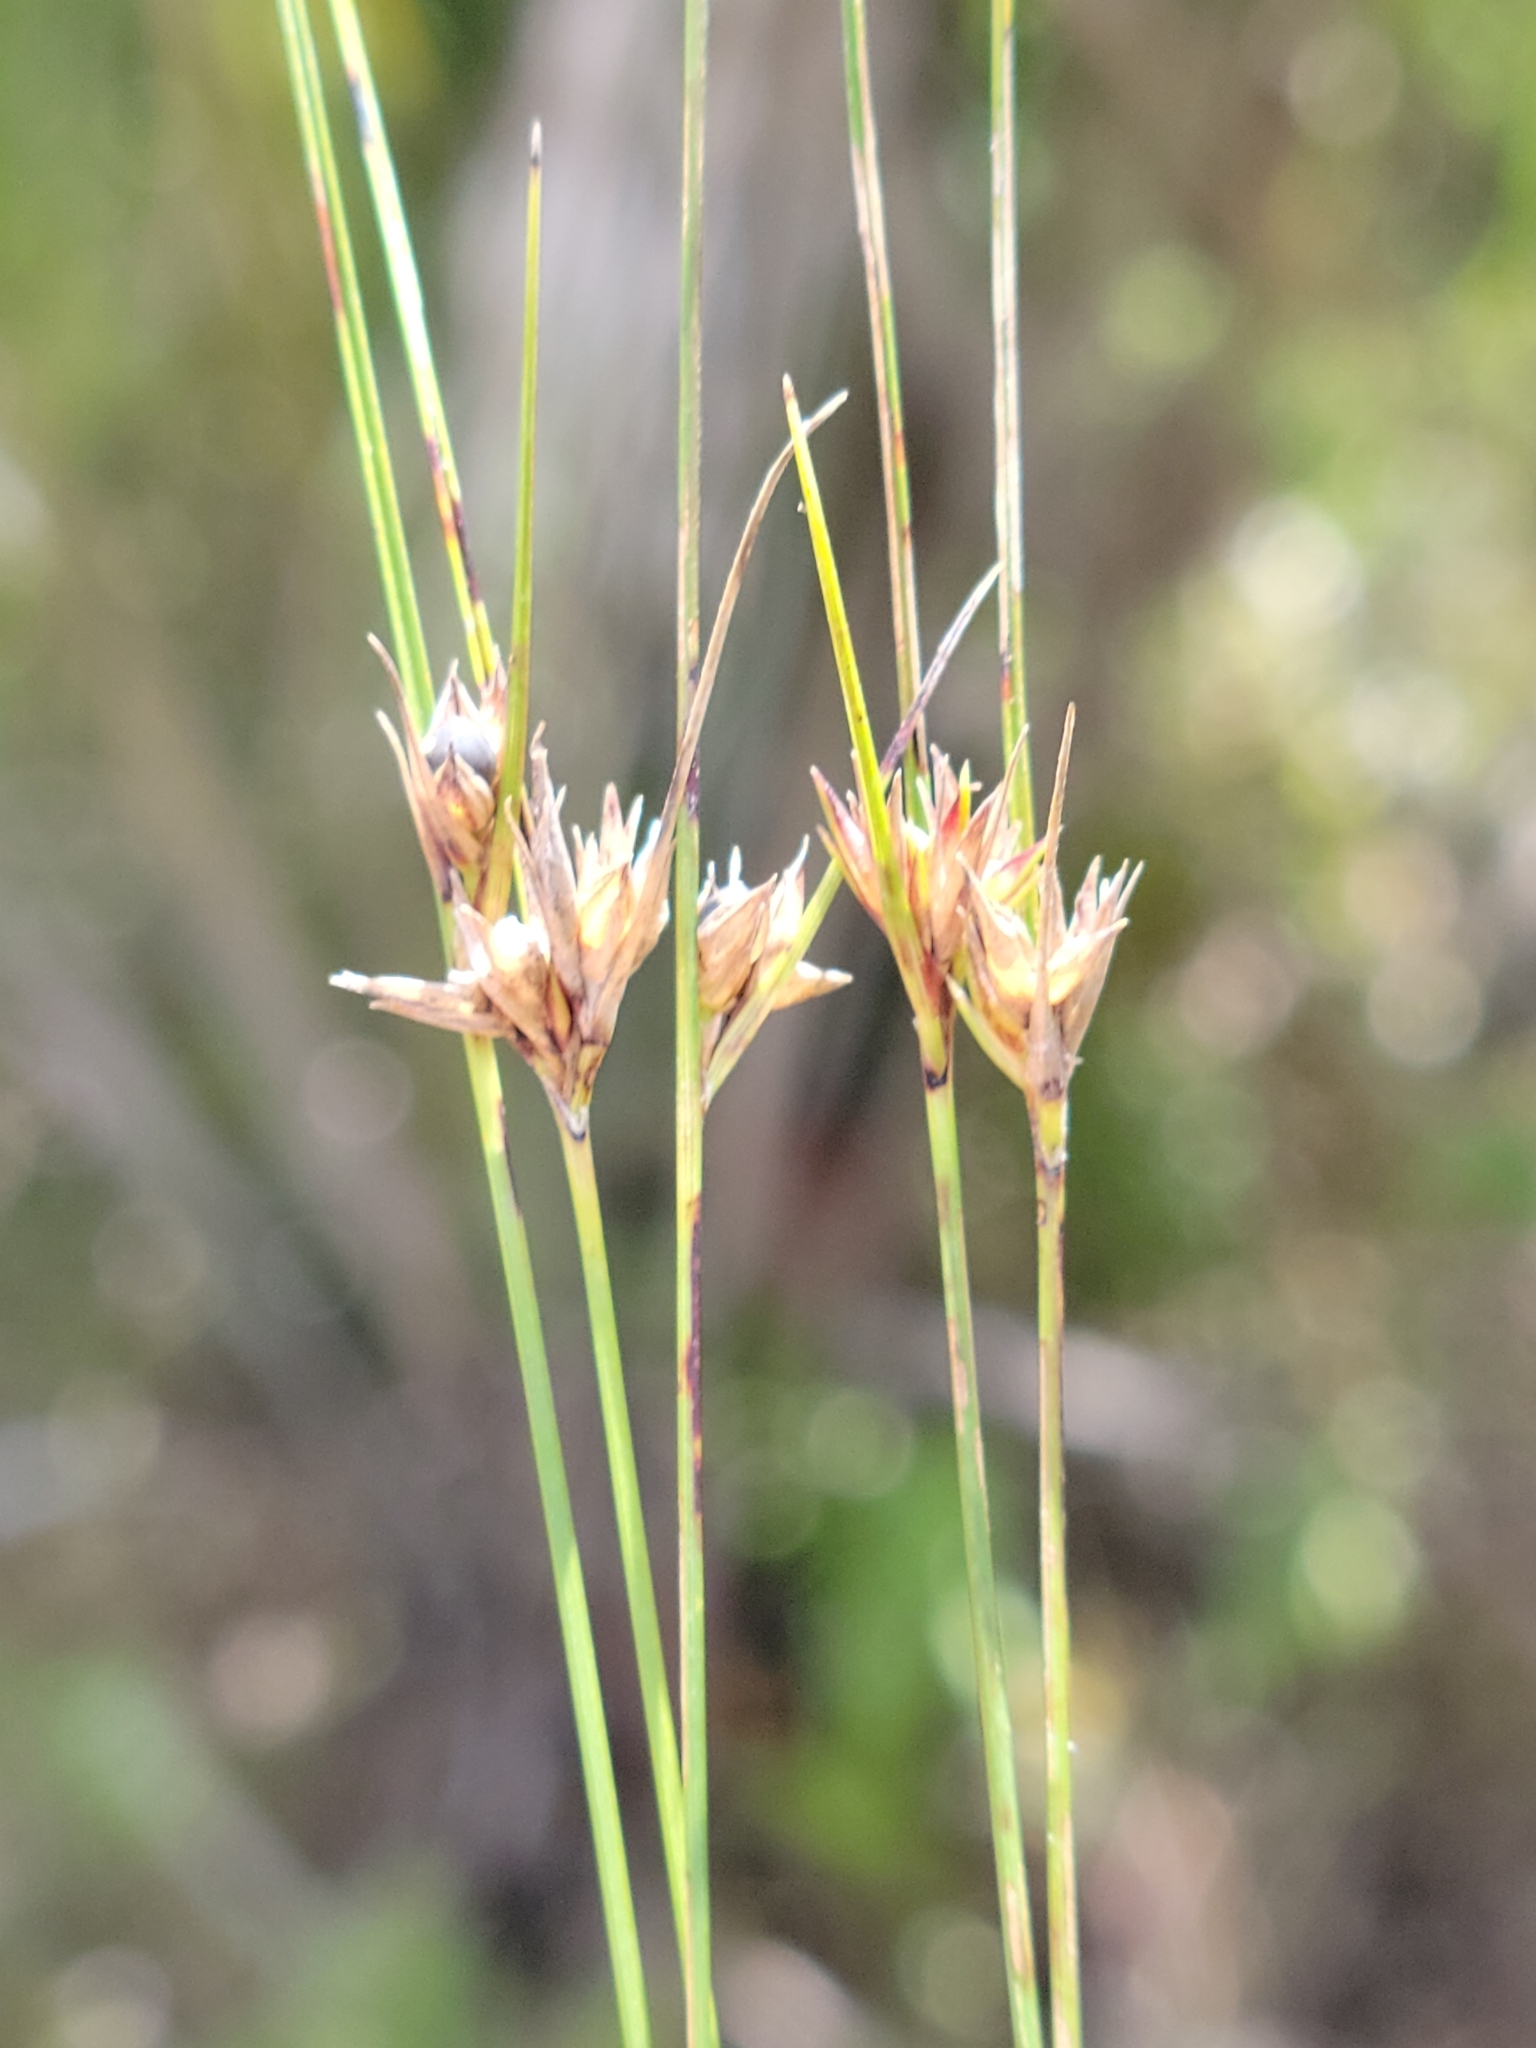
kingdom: Plantae
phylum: Tracheophyta
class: Liliopsida
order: Poales
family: Cyperaceae
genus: Scleria
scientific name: Scleria georgiana
